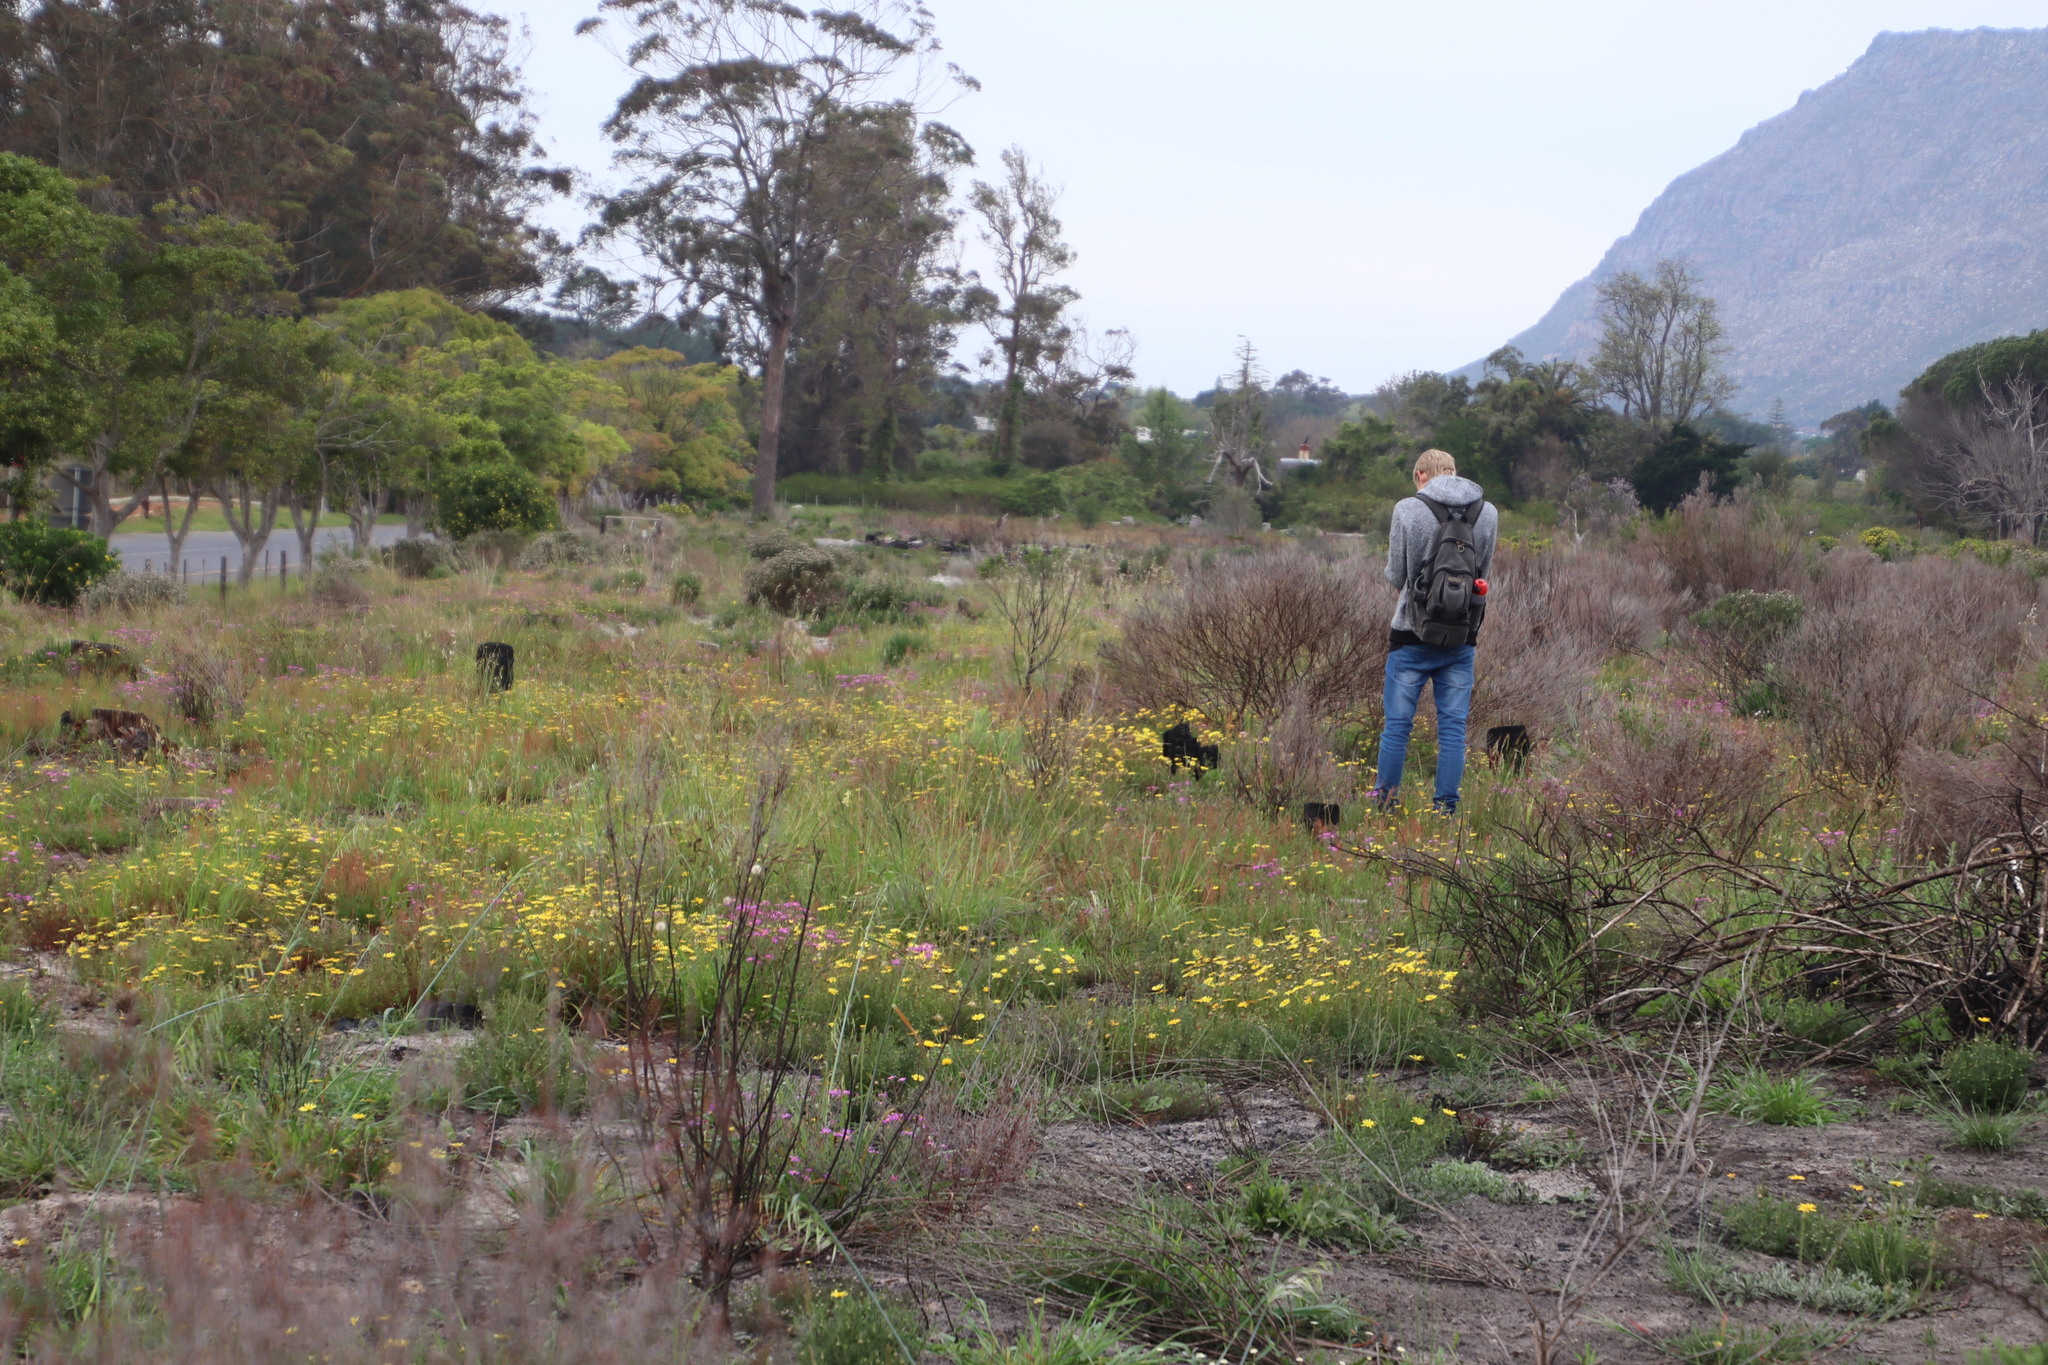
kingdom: Plantae
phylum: Tracheophyta
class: Magnoliopsida
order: Asterales
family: Asteraceae
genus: Ursinia
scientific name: Ursinia anthemoides
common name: Ursinia
